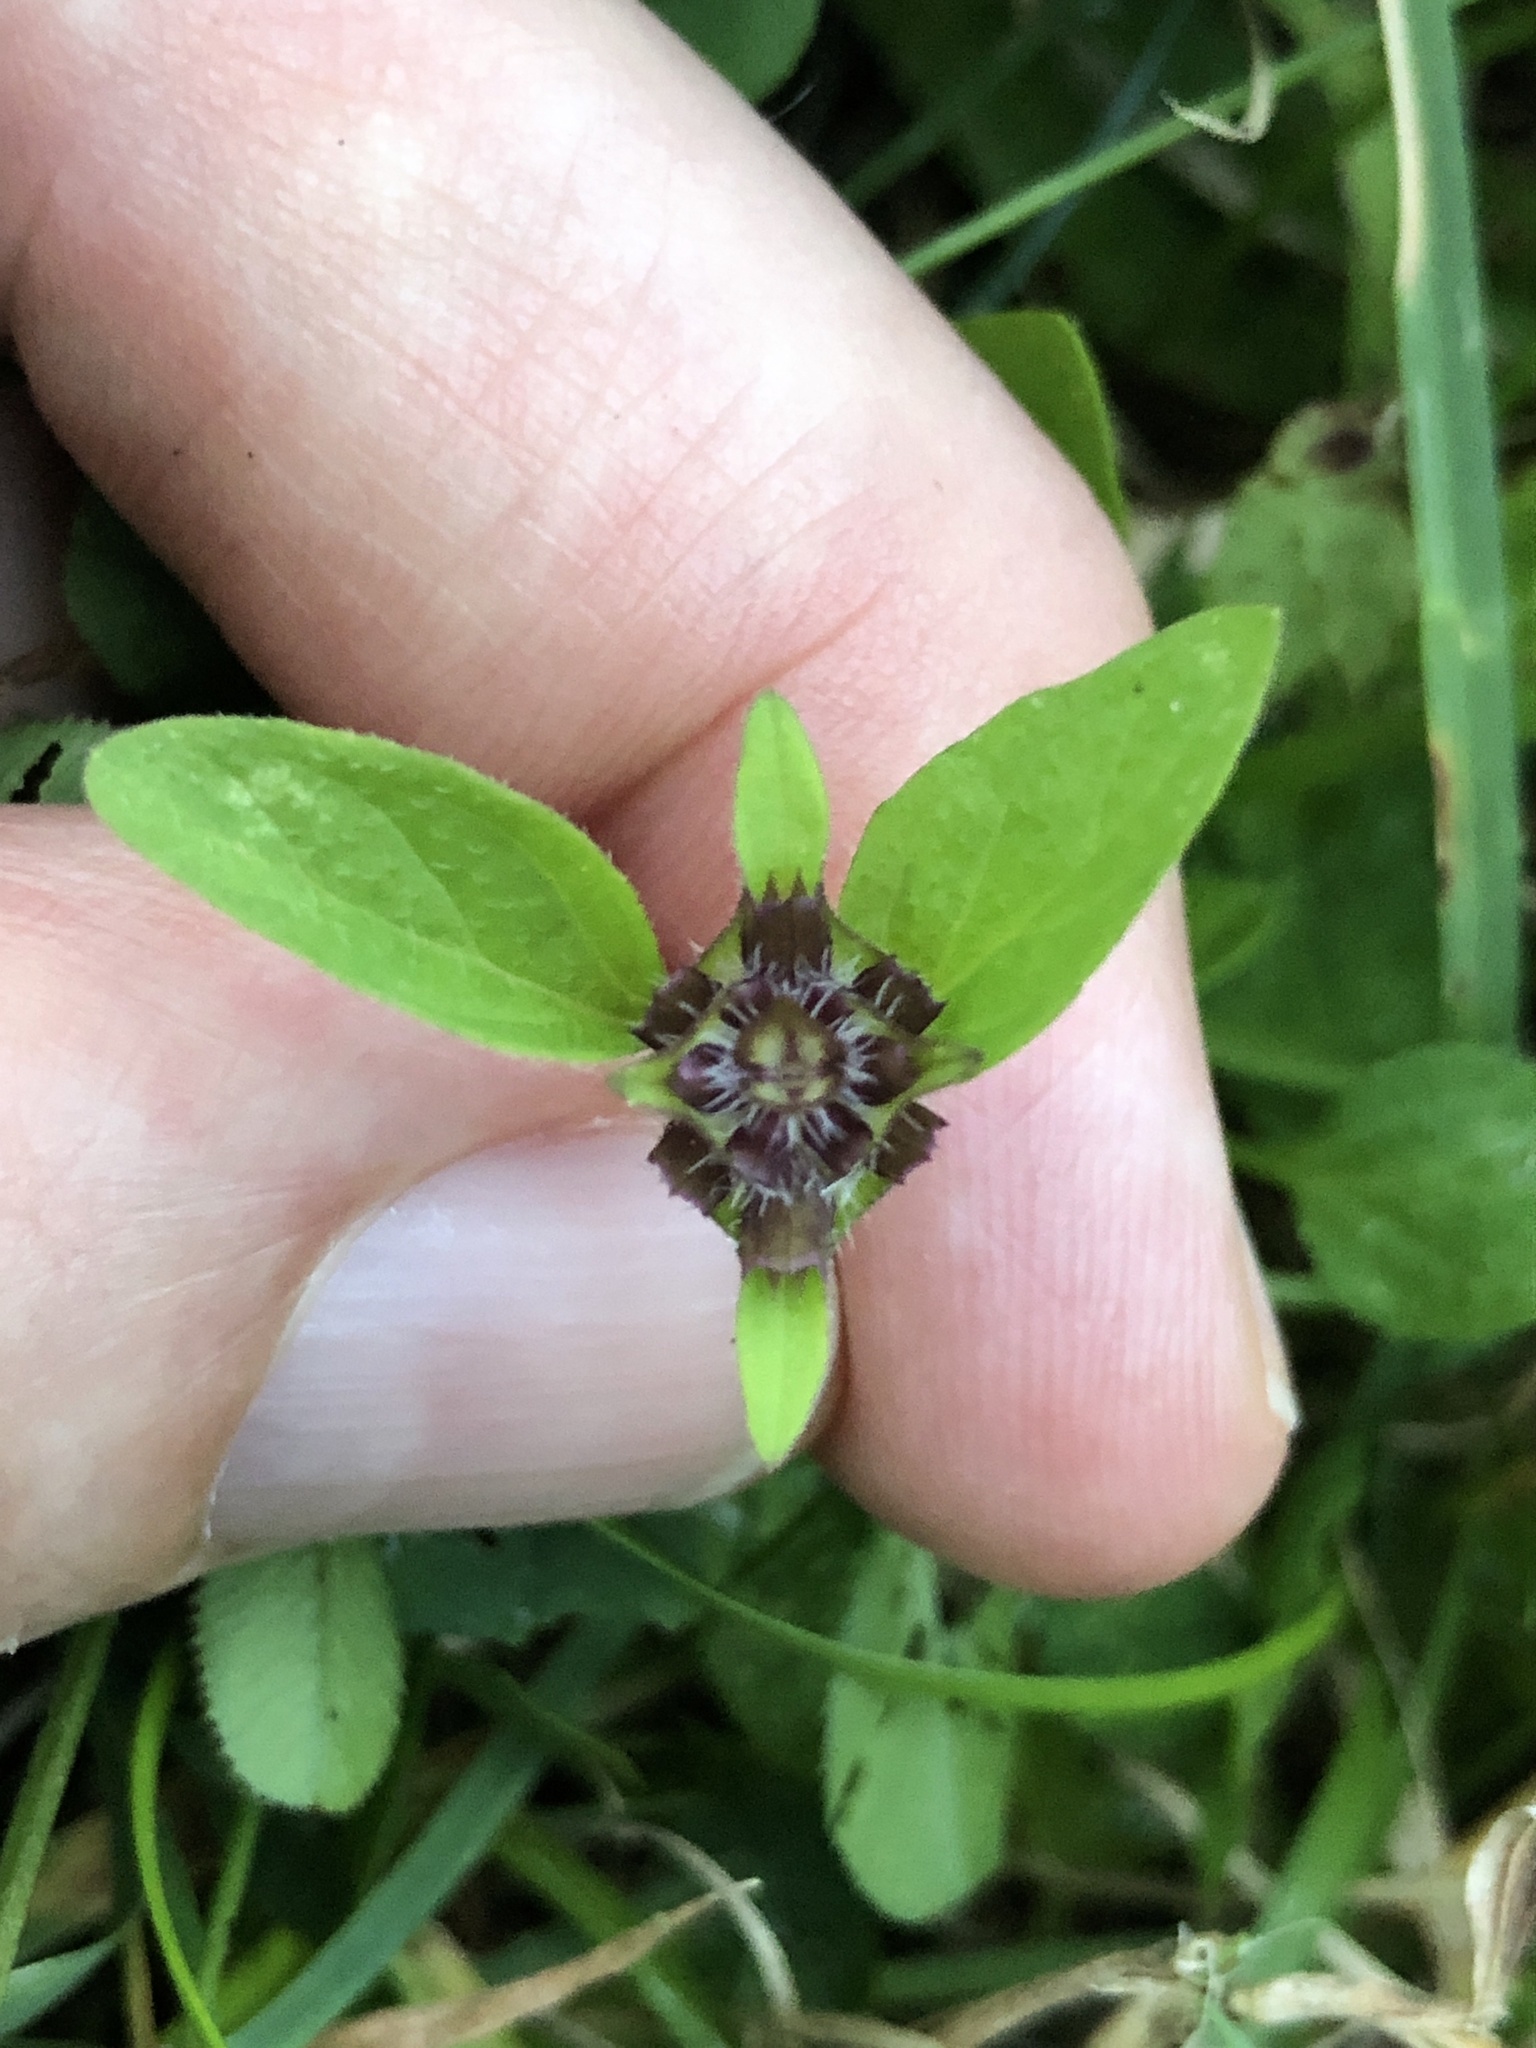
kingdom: Plantae
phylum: Tracheophyta
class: Magnoliopsida
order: Lamiales
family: Lamiaceae
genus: Prunella
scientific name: Prunella vulgaris
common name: Heal-all
